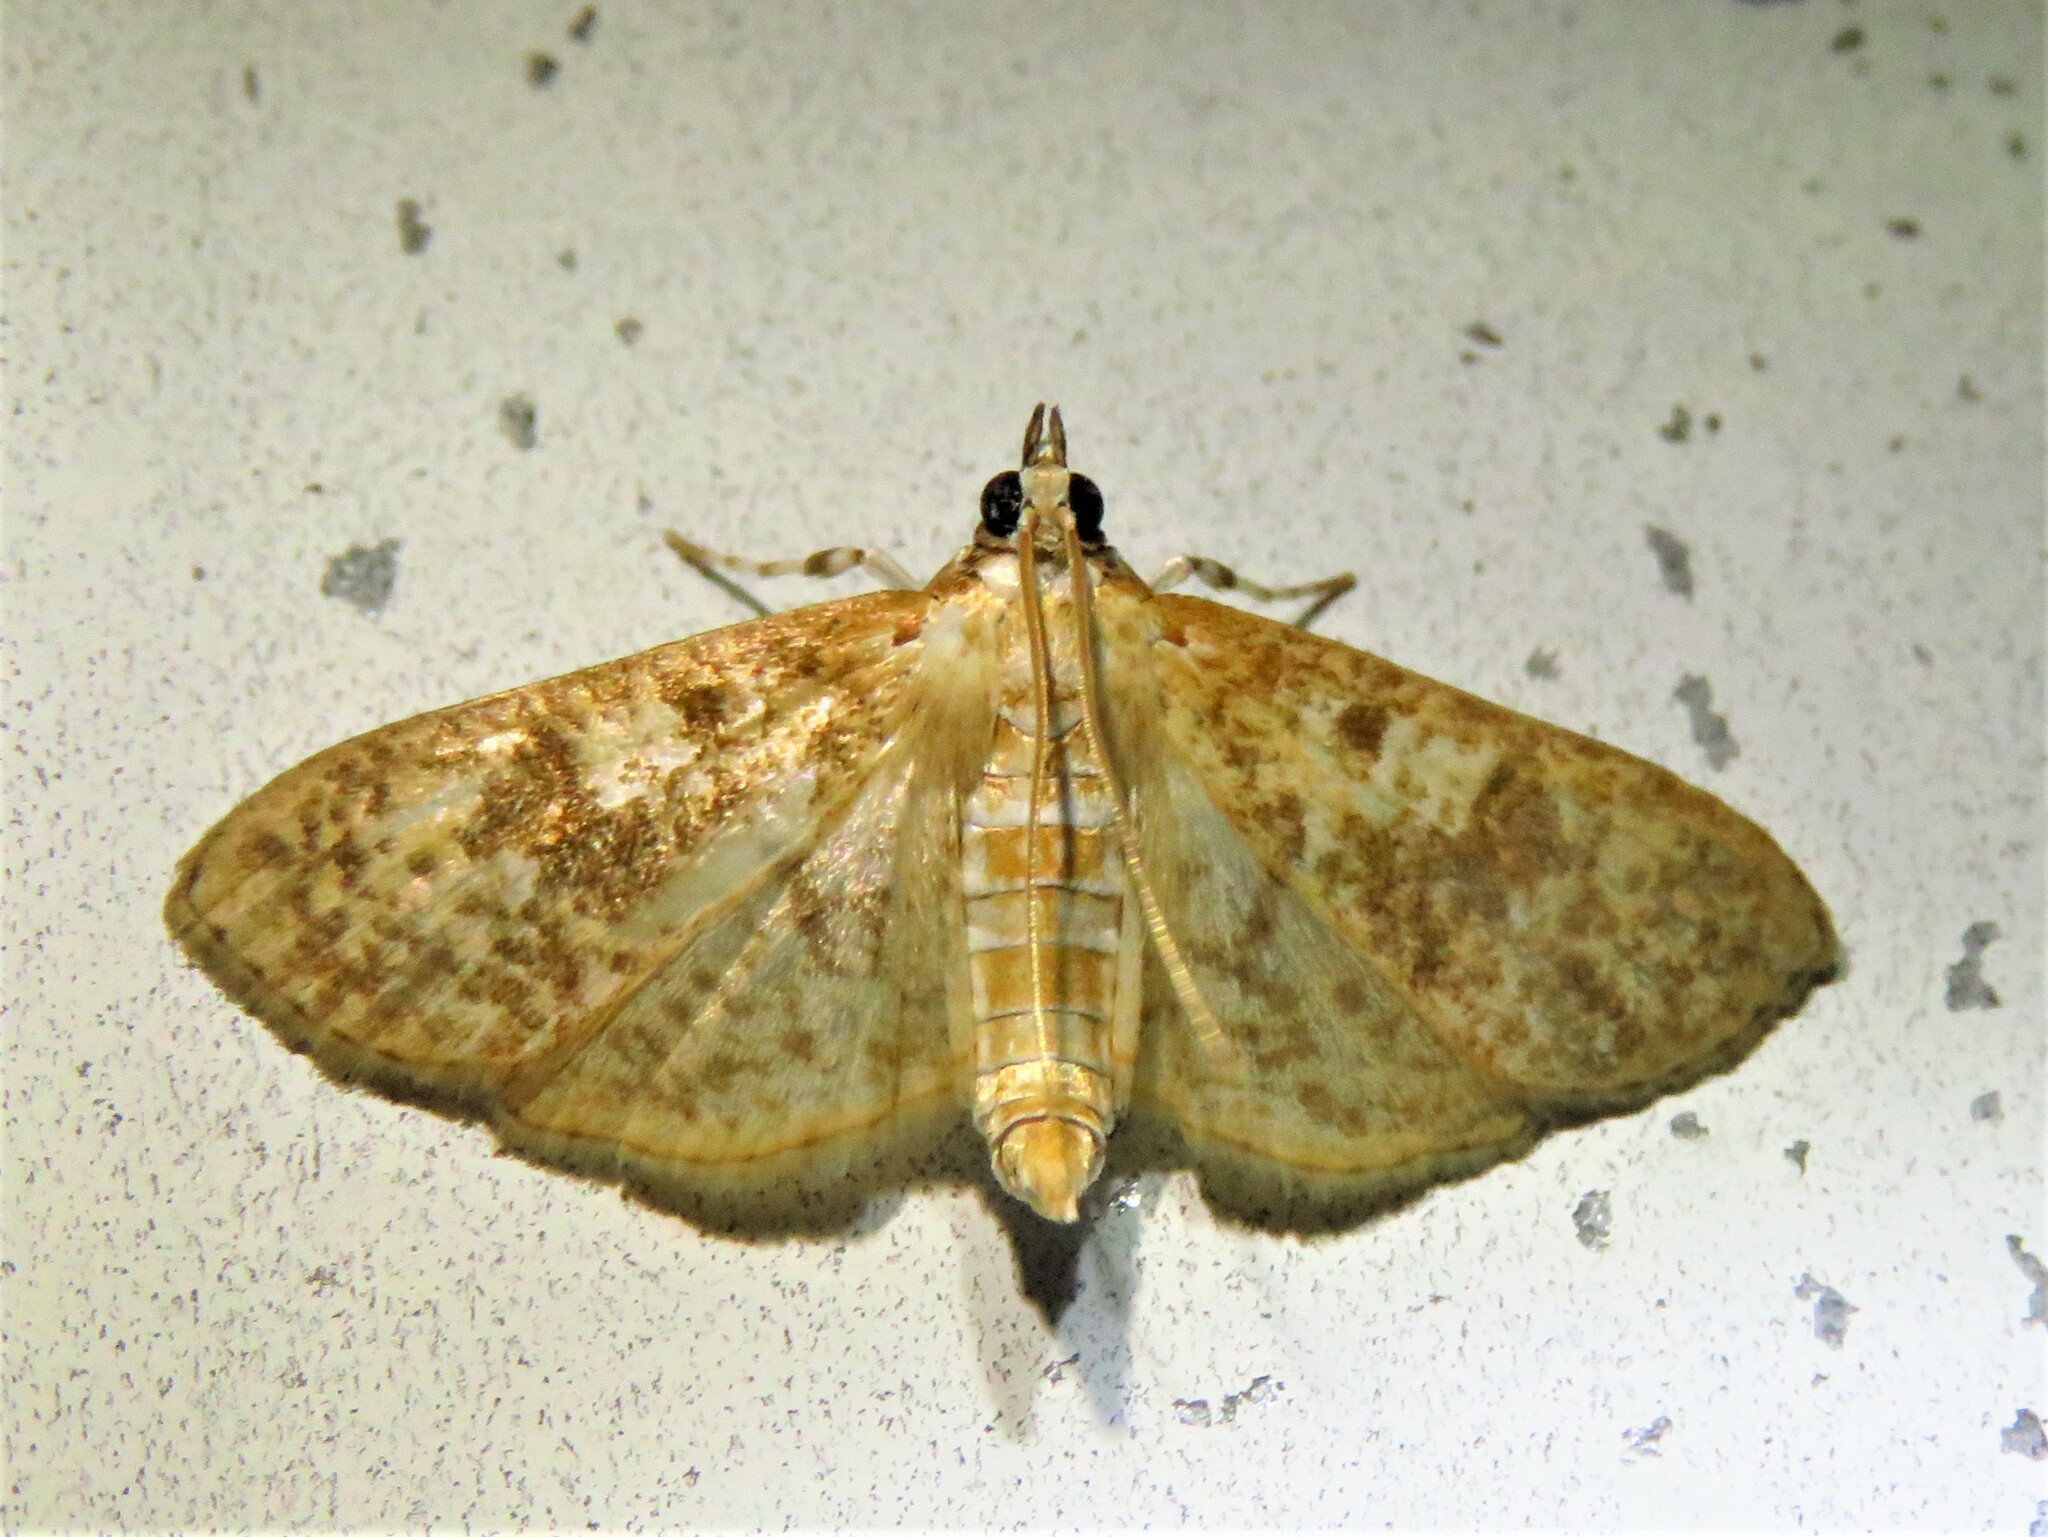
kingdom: Animalia
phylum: Arthropoda
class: Insecta
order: Lepidoptera
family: Crambidae
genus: Palpita
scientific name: Palpita freemanalis
